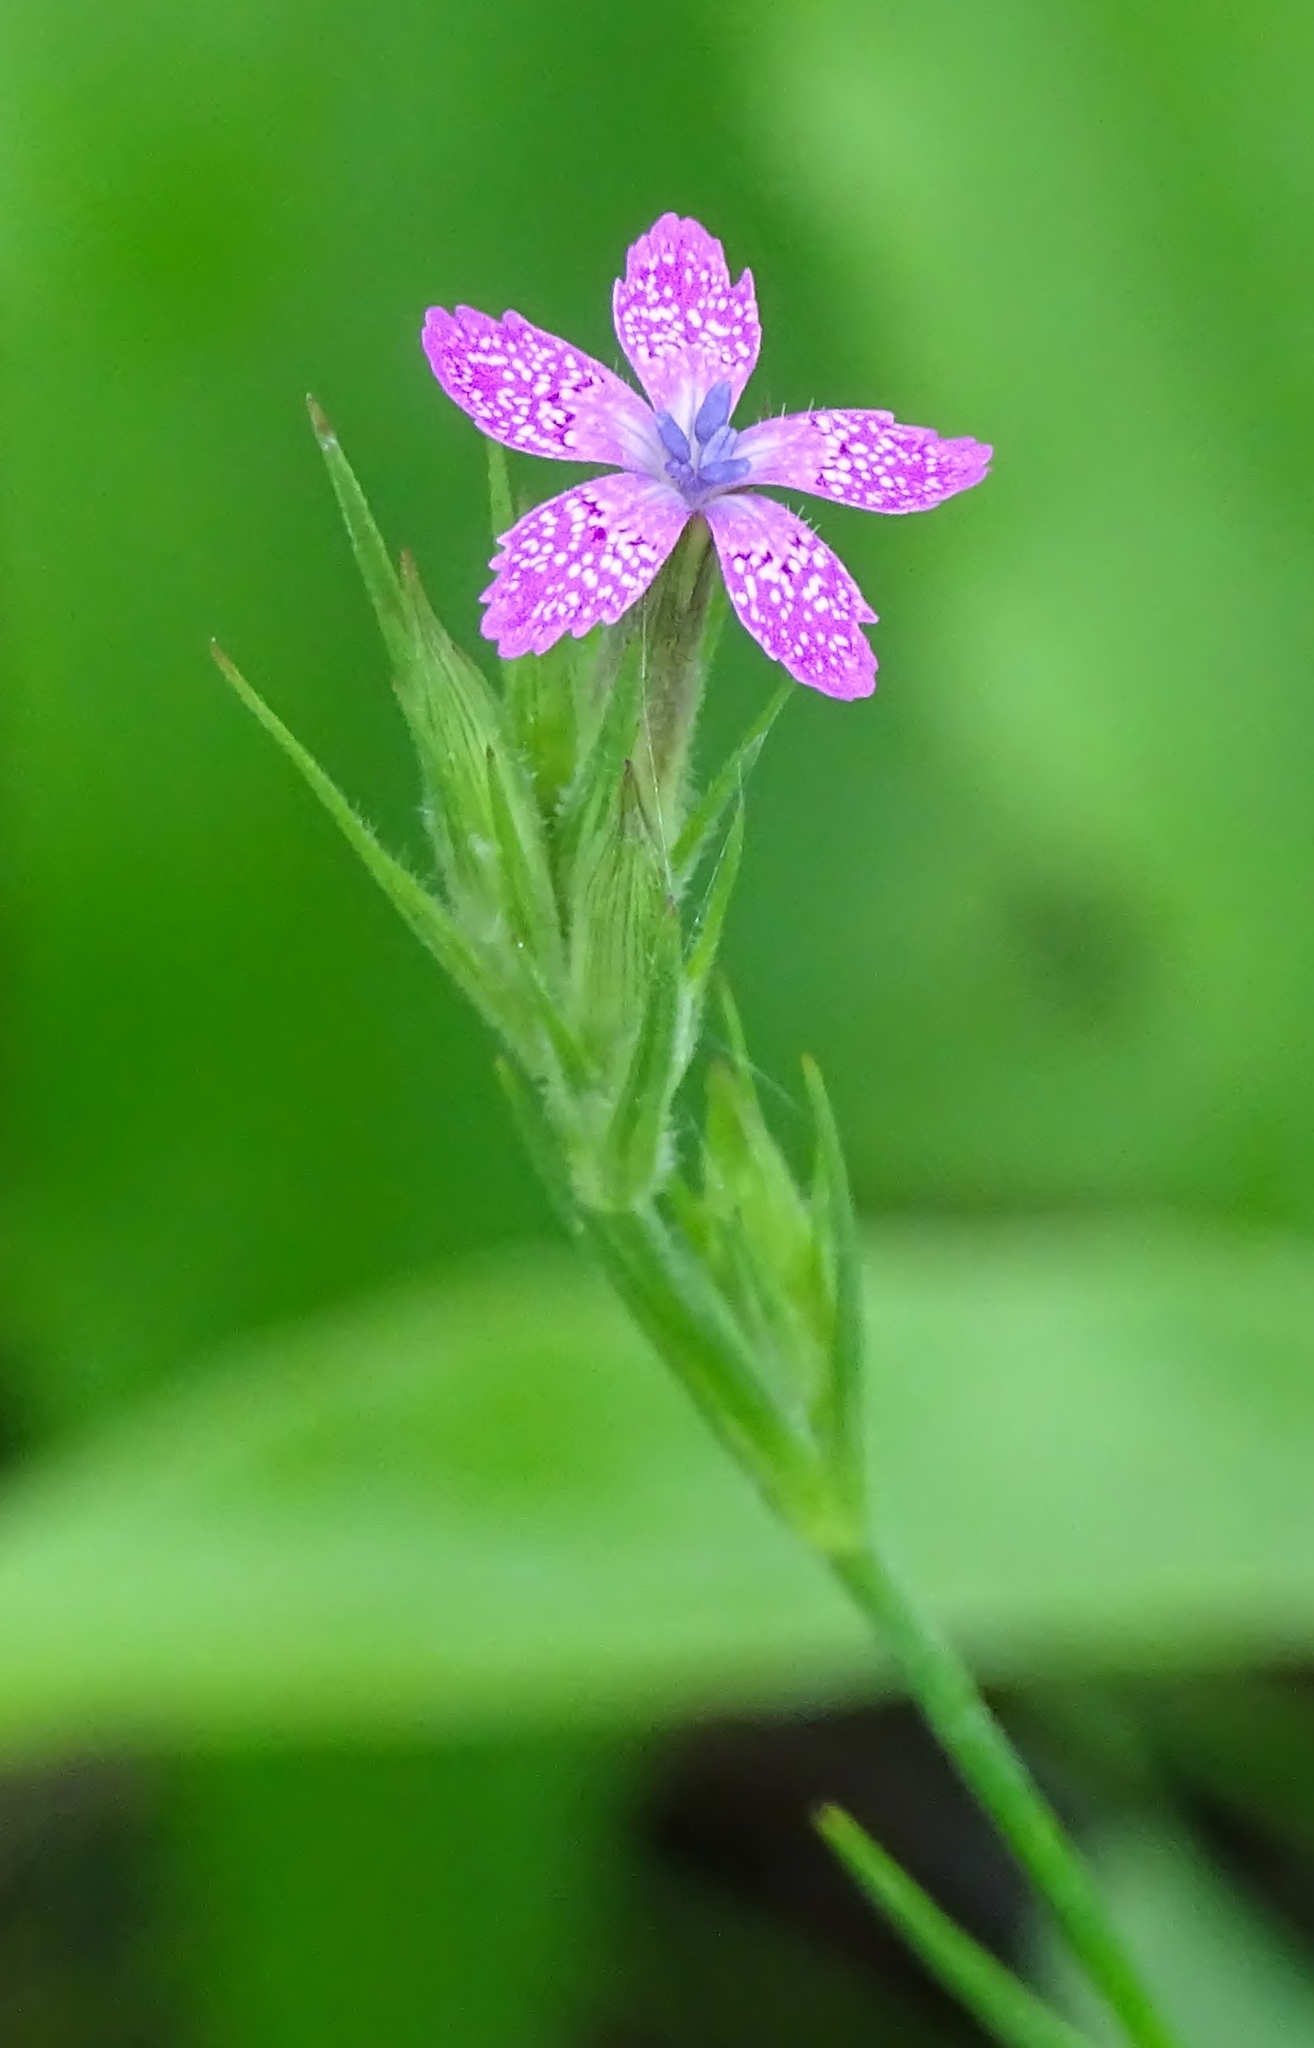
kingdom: Plantae
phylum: Tracheophyta
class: Magnoliopsida
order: Caryophyllales
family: Caryophyllaceae
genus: Dianthus
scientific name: Dianthus armeria
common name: Deptford pink
